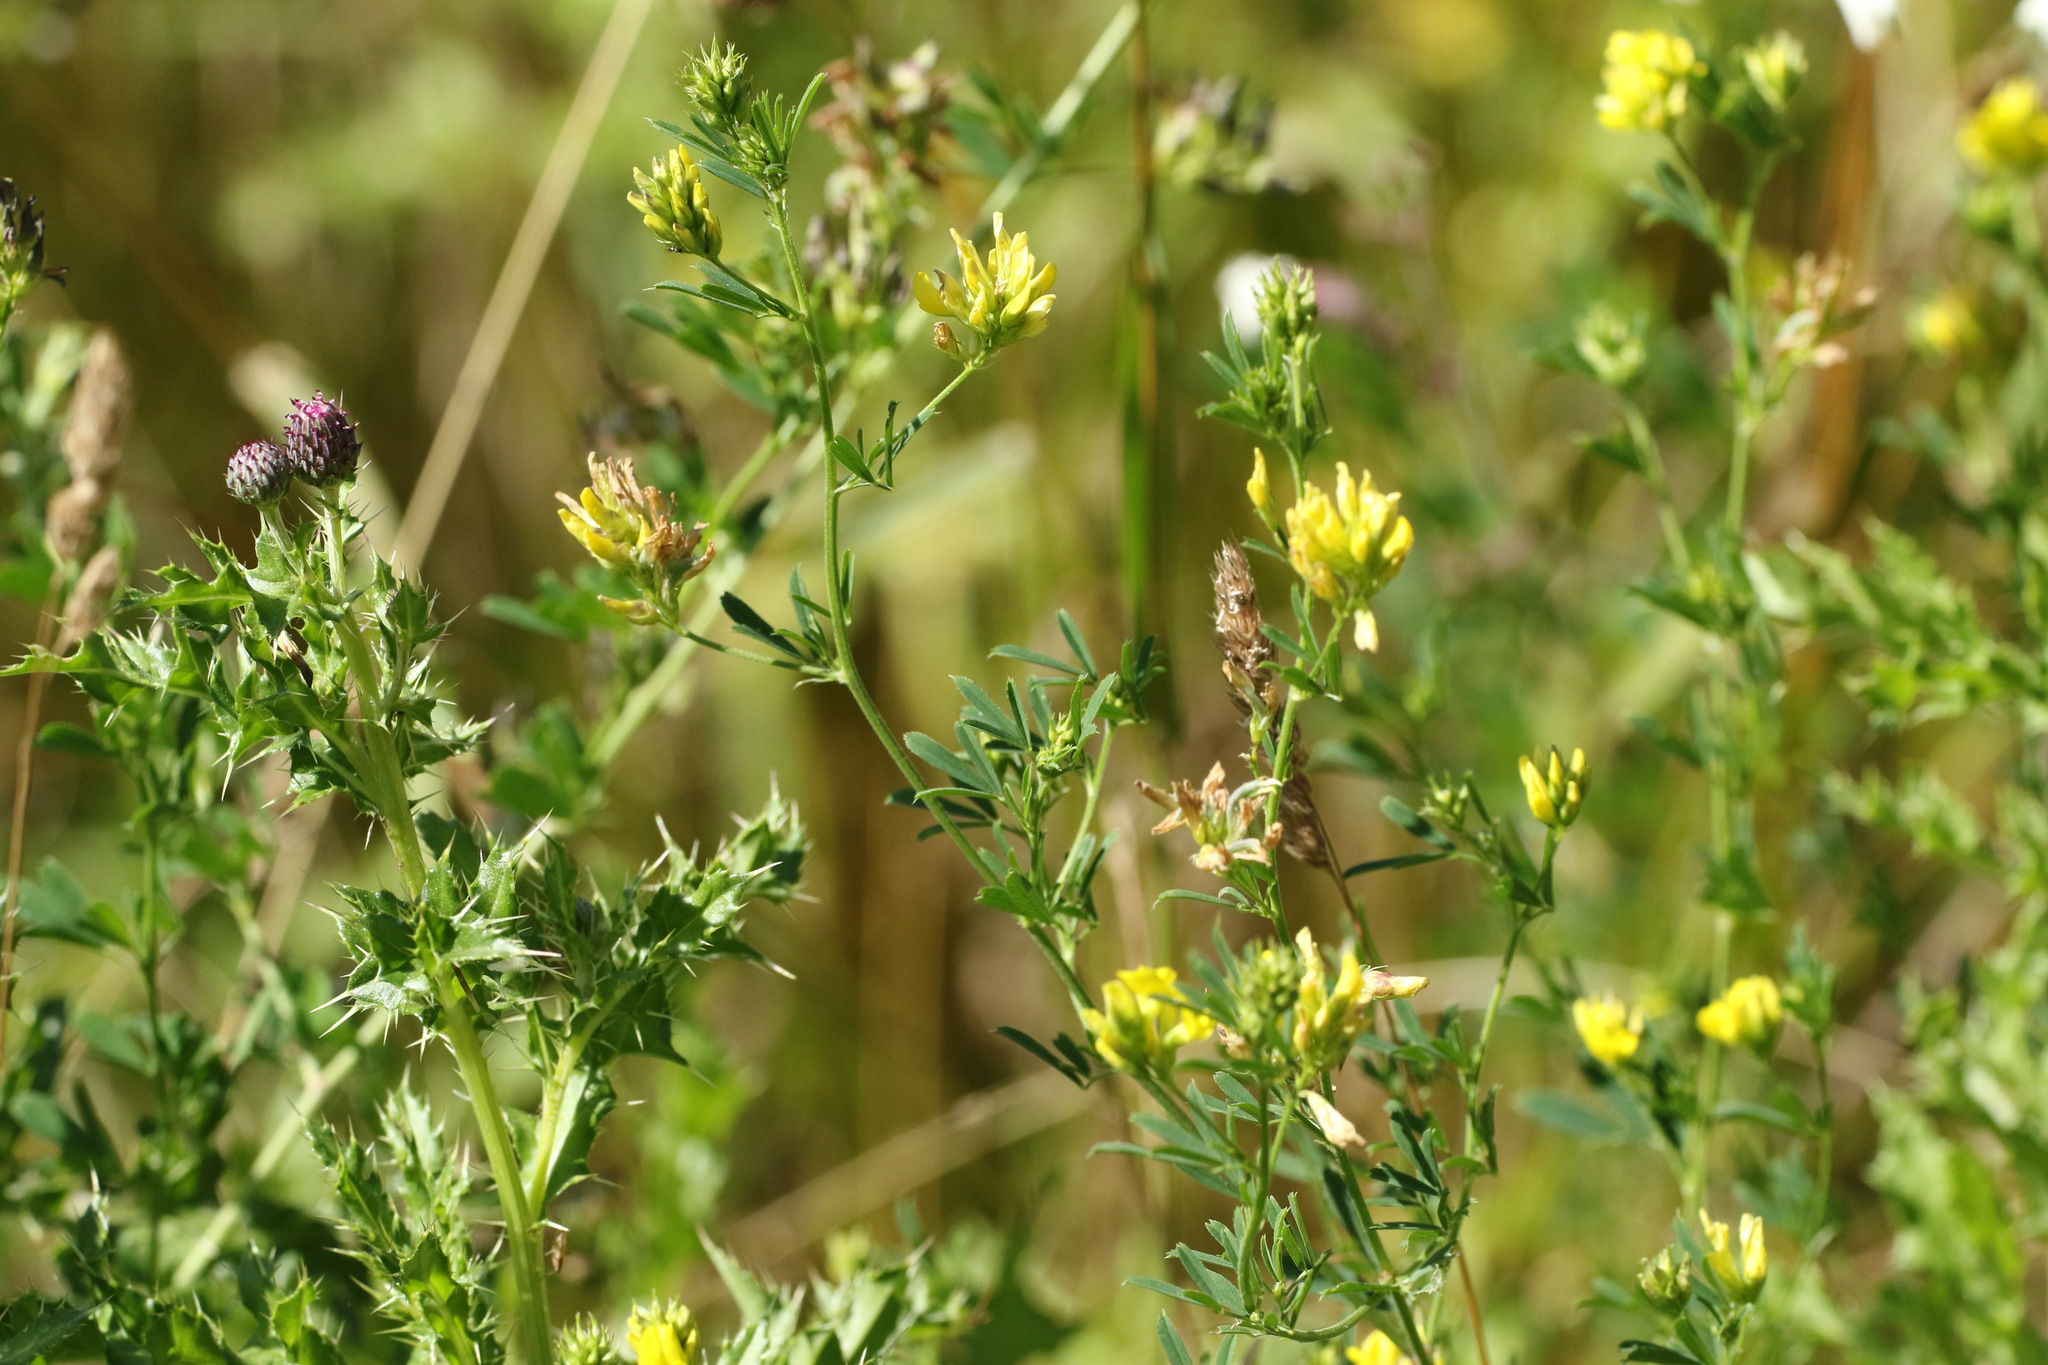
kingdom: Plantae
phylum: Tracheophyta
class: Magnoliopsida
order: Fabales
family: Fabaceae
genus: Medicago
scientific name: Medicago falcata
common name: Sickle medick
